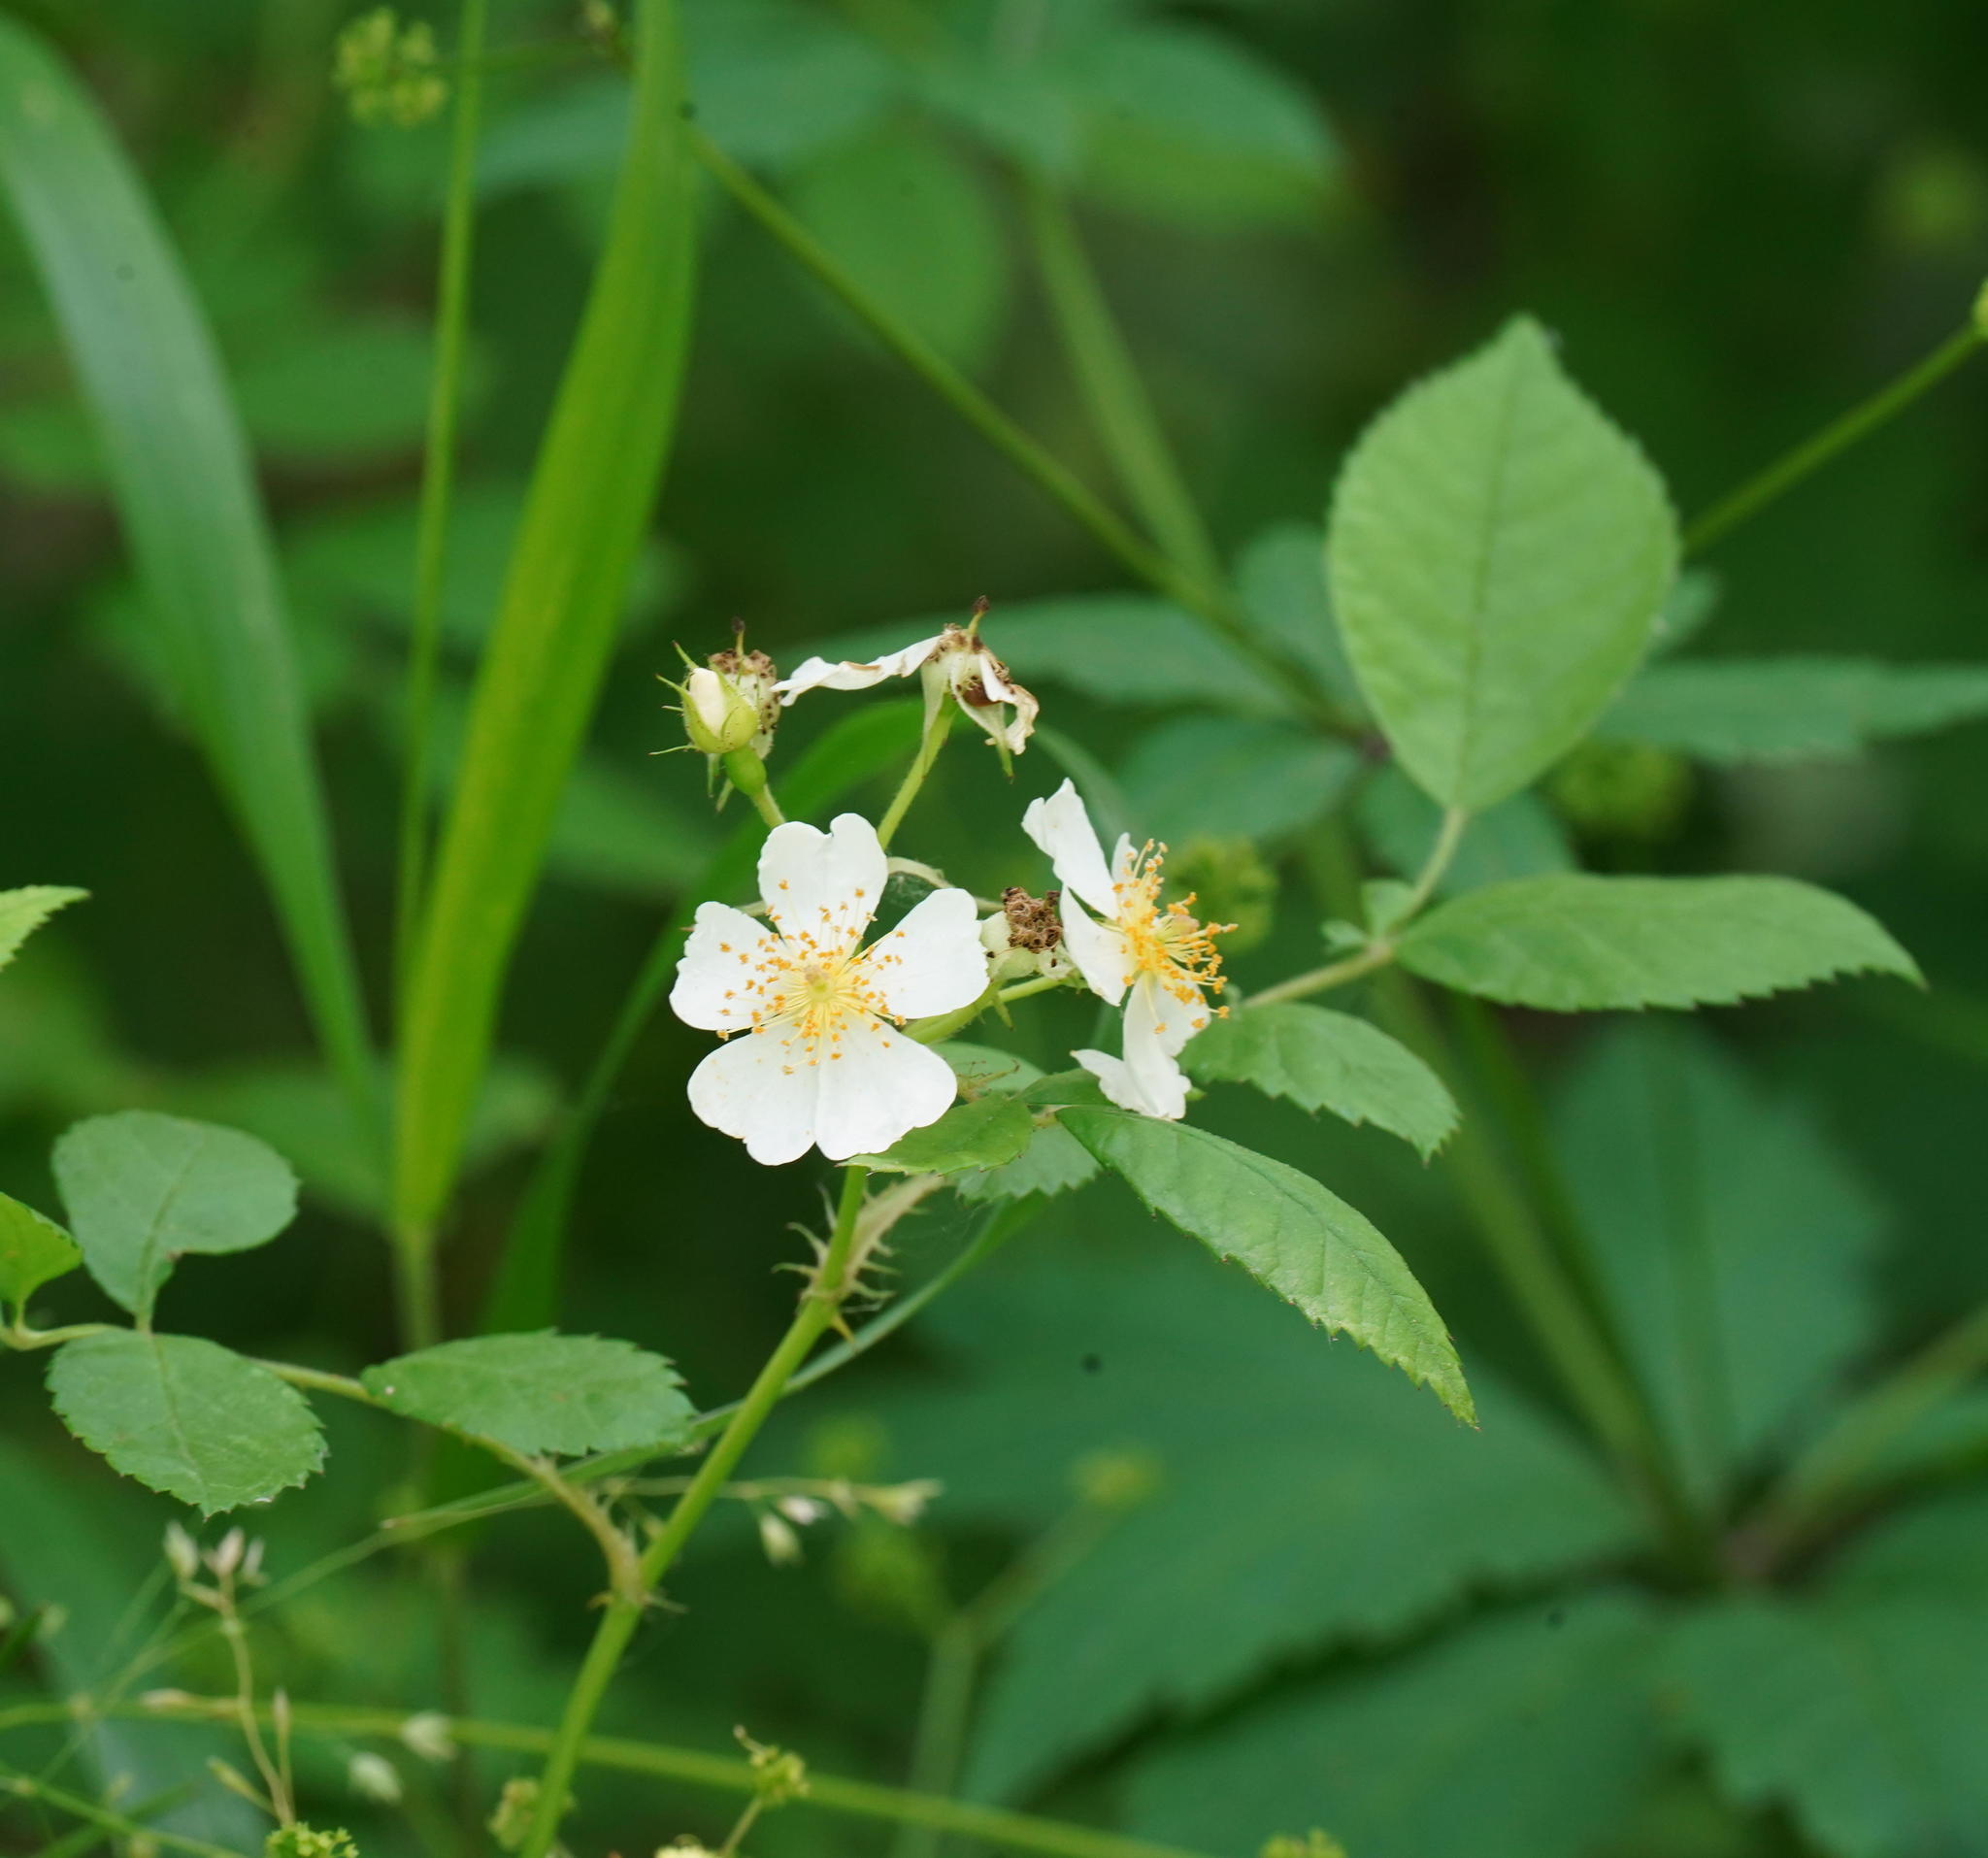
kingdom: Plantae
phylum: Tracheophyta
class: Magnoliopsida
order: Rosales
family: Rosaceae
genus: Rosa
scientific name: Rosa multiflora
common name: Multiflora rose
